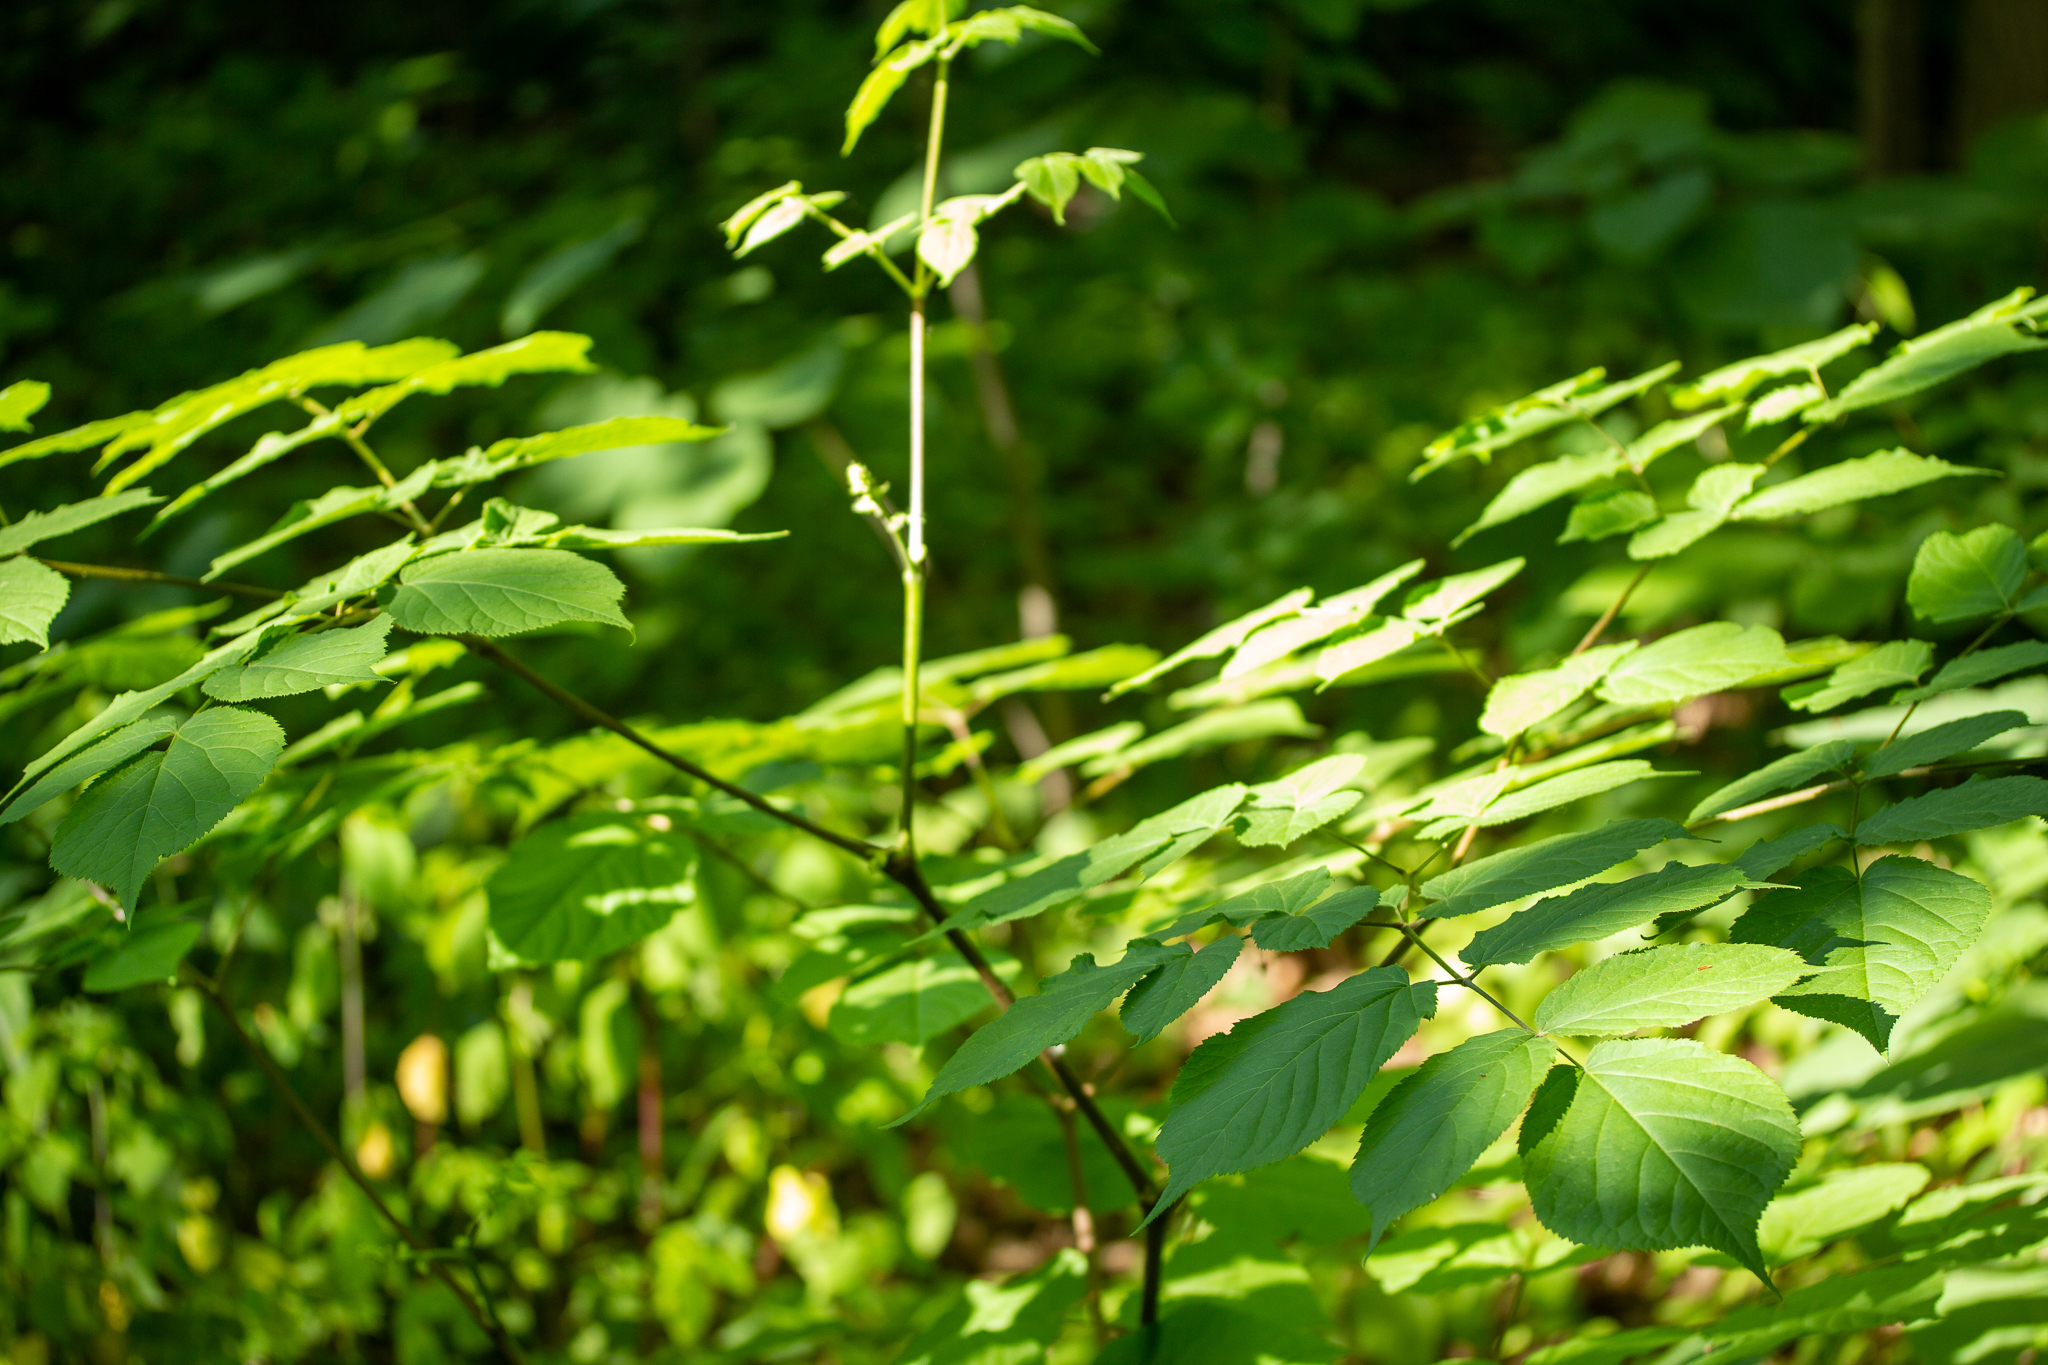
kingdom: Plantae
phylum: Tracheophyta
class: Magnoliopsida
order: Apiales
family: Araliaceae
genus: Aralia
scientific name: Aralia racemosa
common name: American-spikenard
